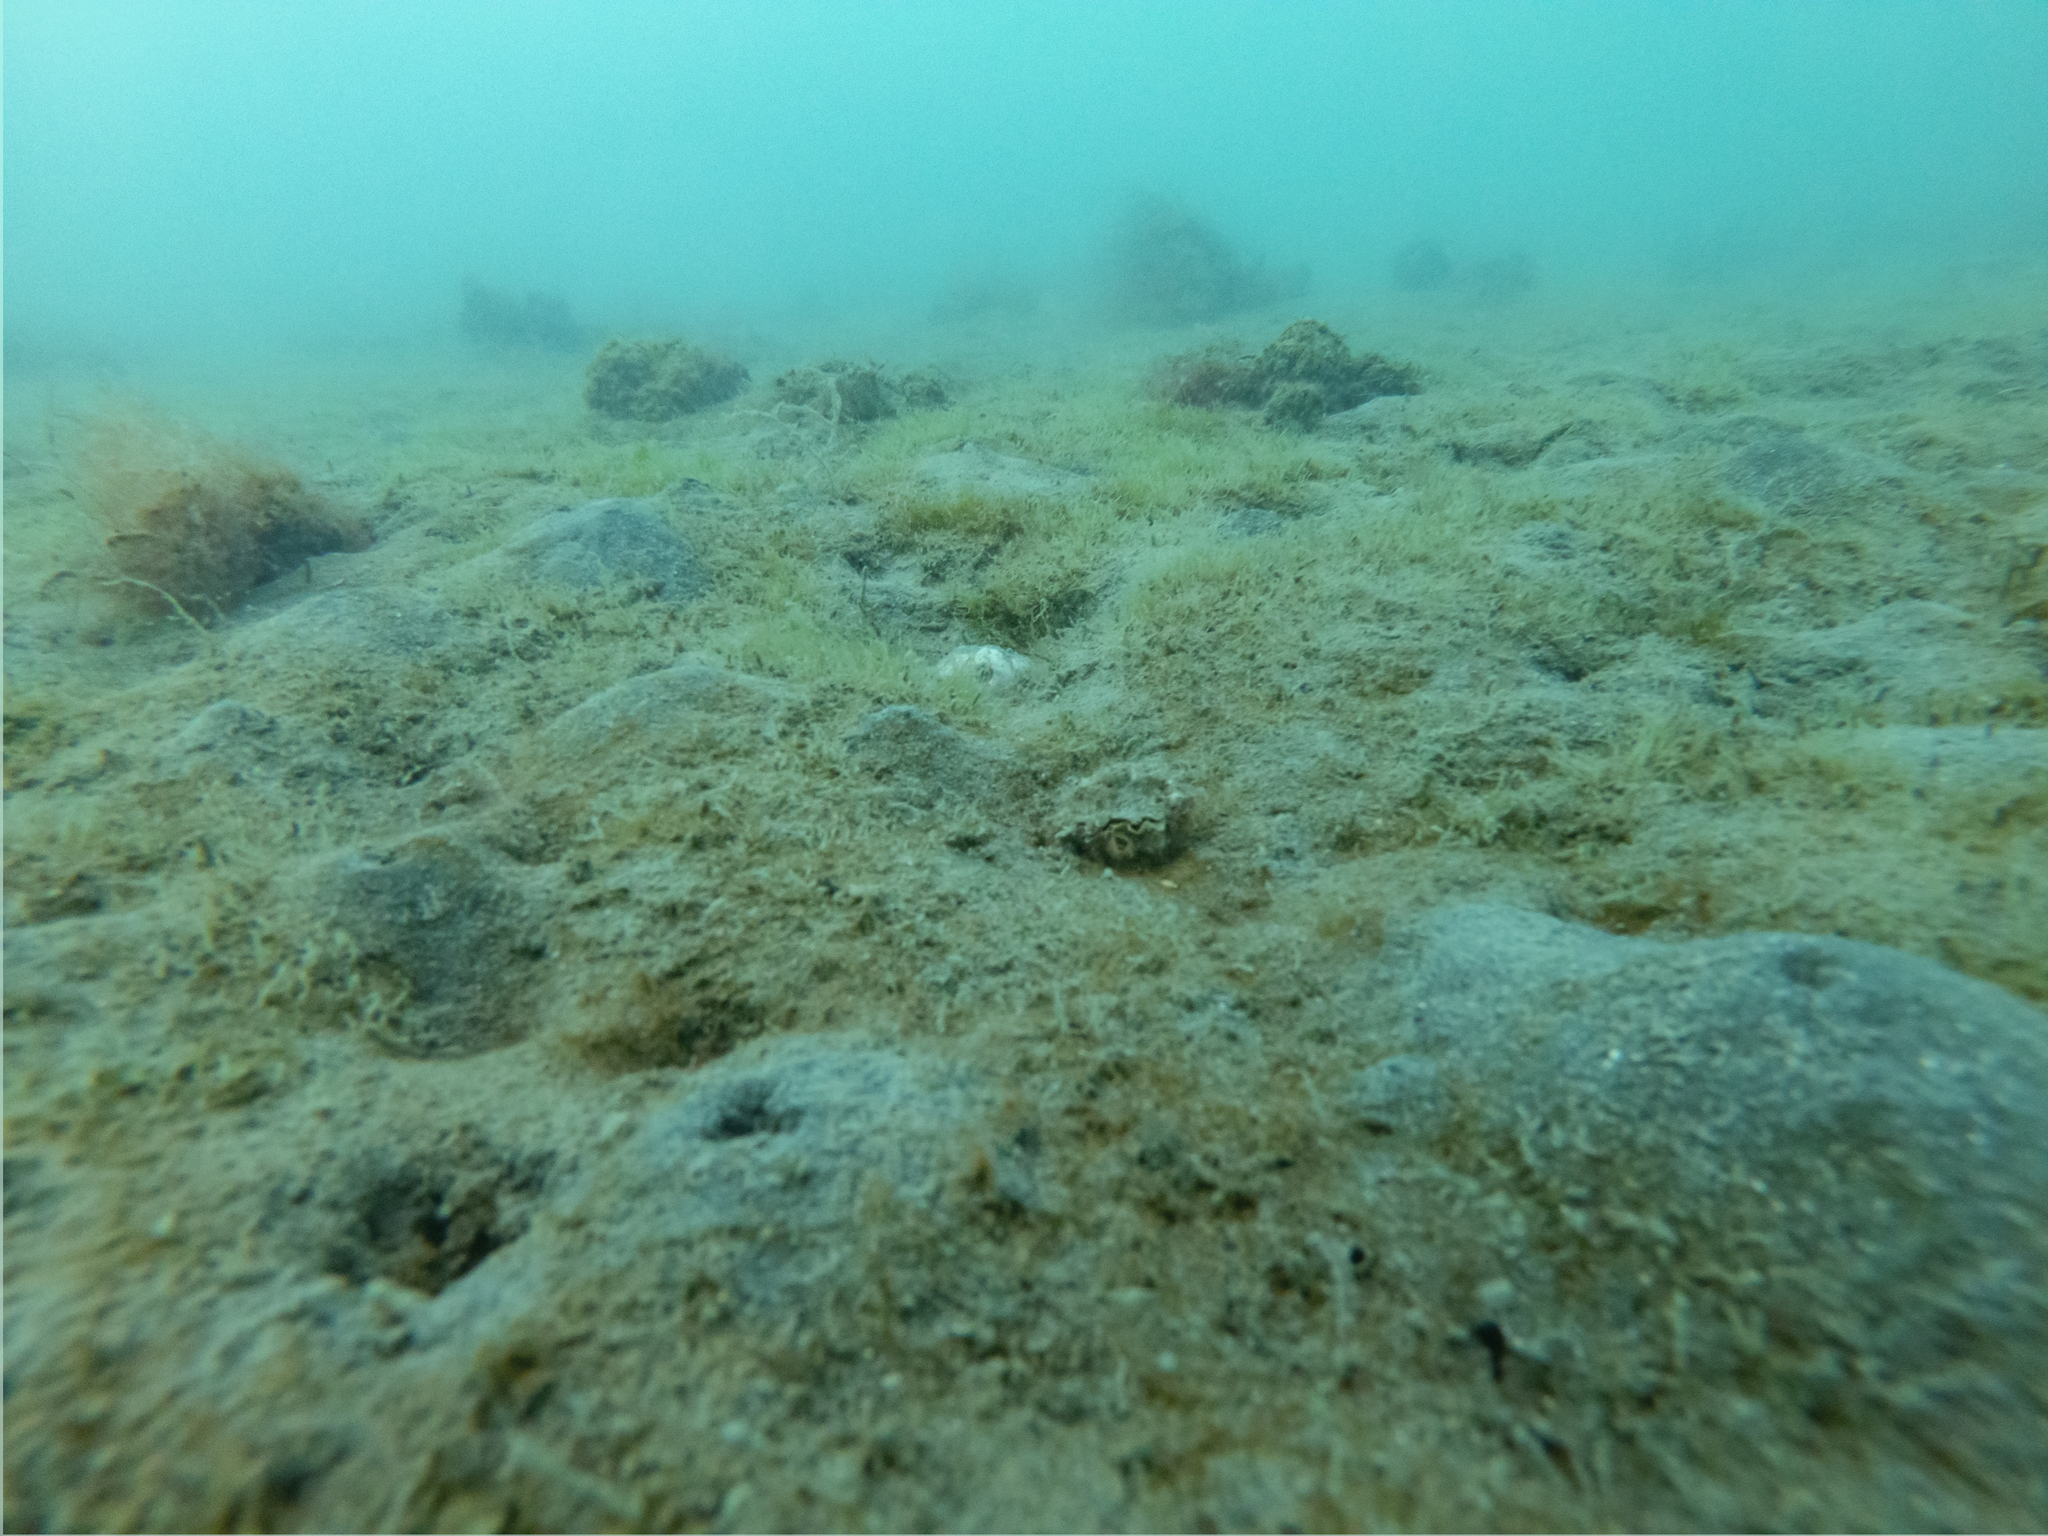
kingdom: Animalia
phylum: Mollusca
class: Bivalvia
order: Ostreida
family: Ostreidae
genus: Magallana
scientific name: Magallana gigas
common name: Pacific oyster
